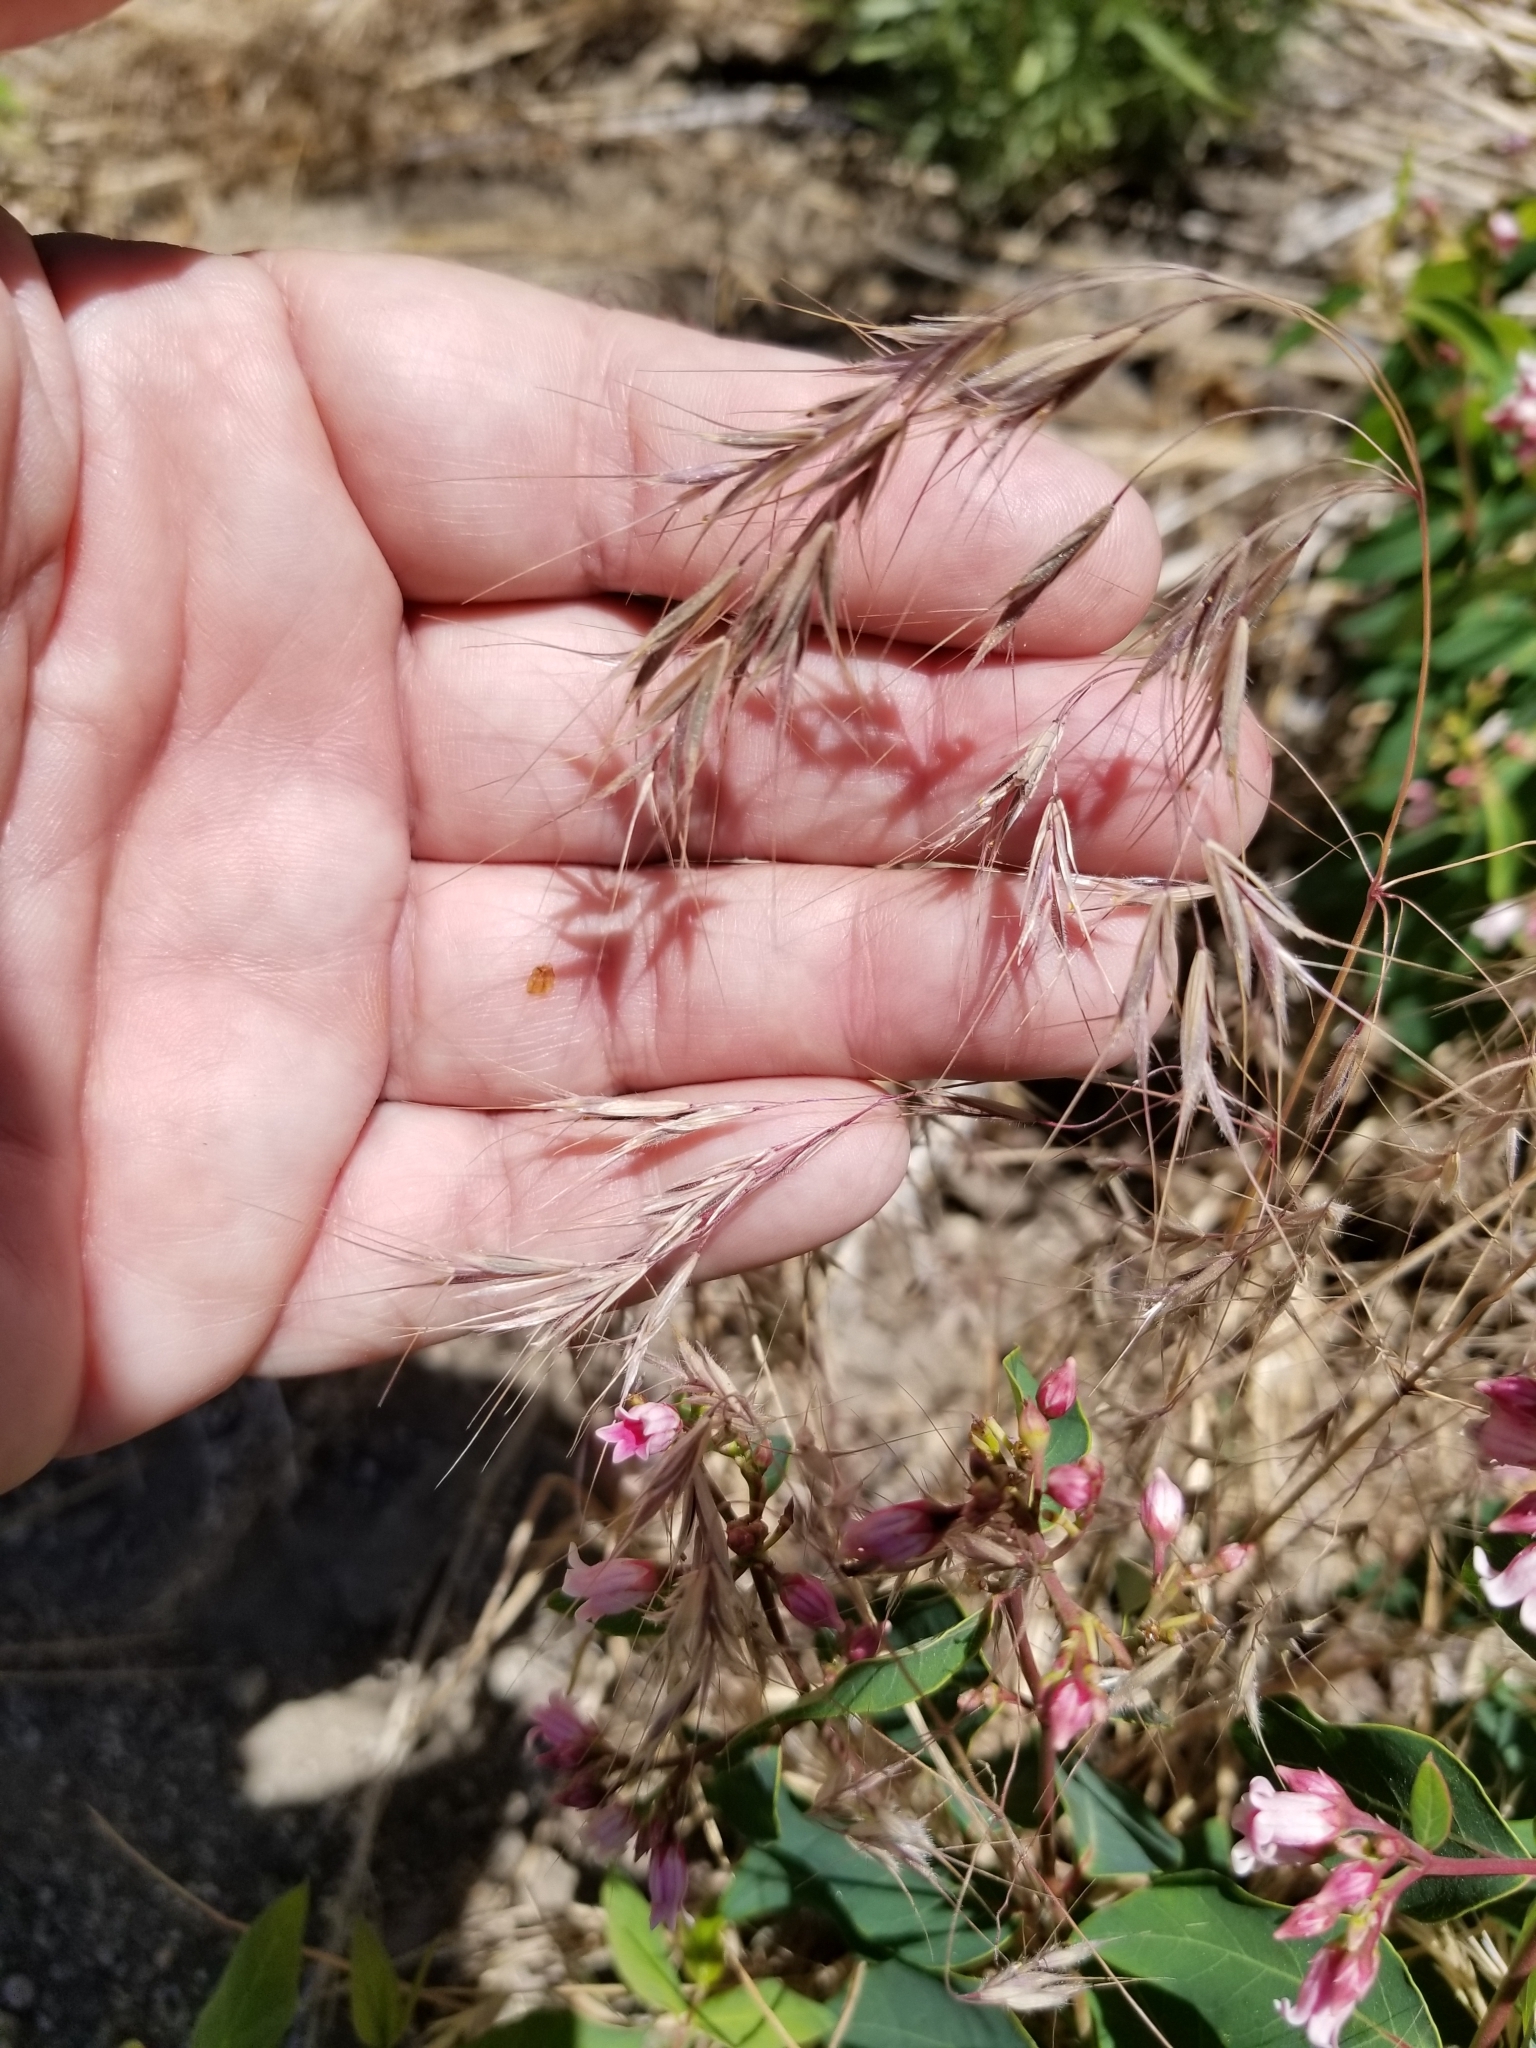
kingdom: Plantae
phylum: Tracheophyta
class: Liliopsida
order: Poales
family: Poaceae
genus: Bromus
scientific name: Bromus tectorum
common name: Cheatgrass
